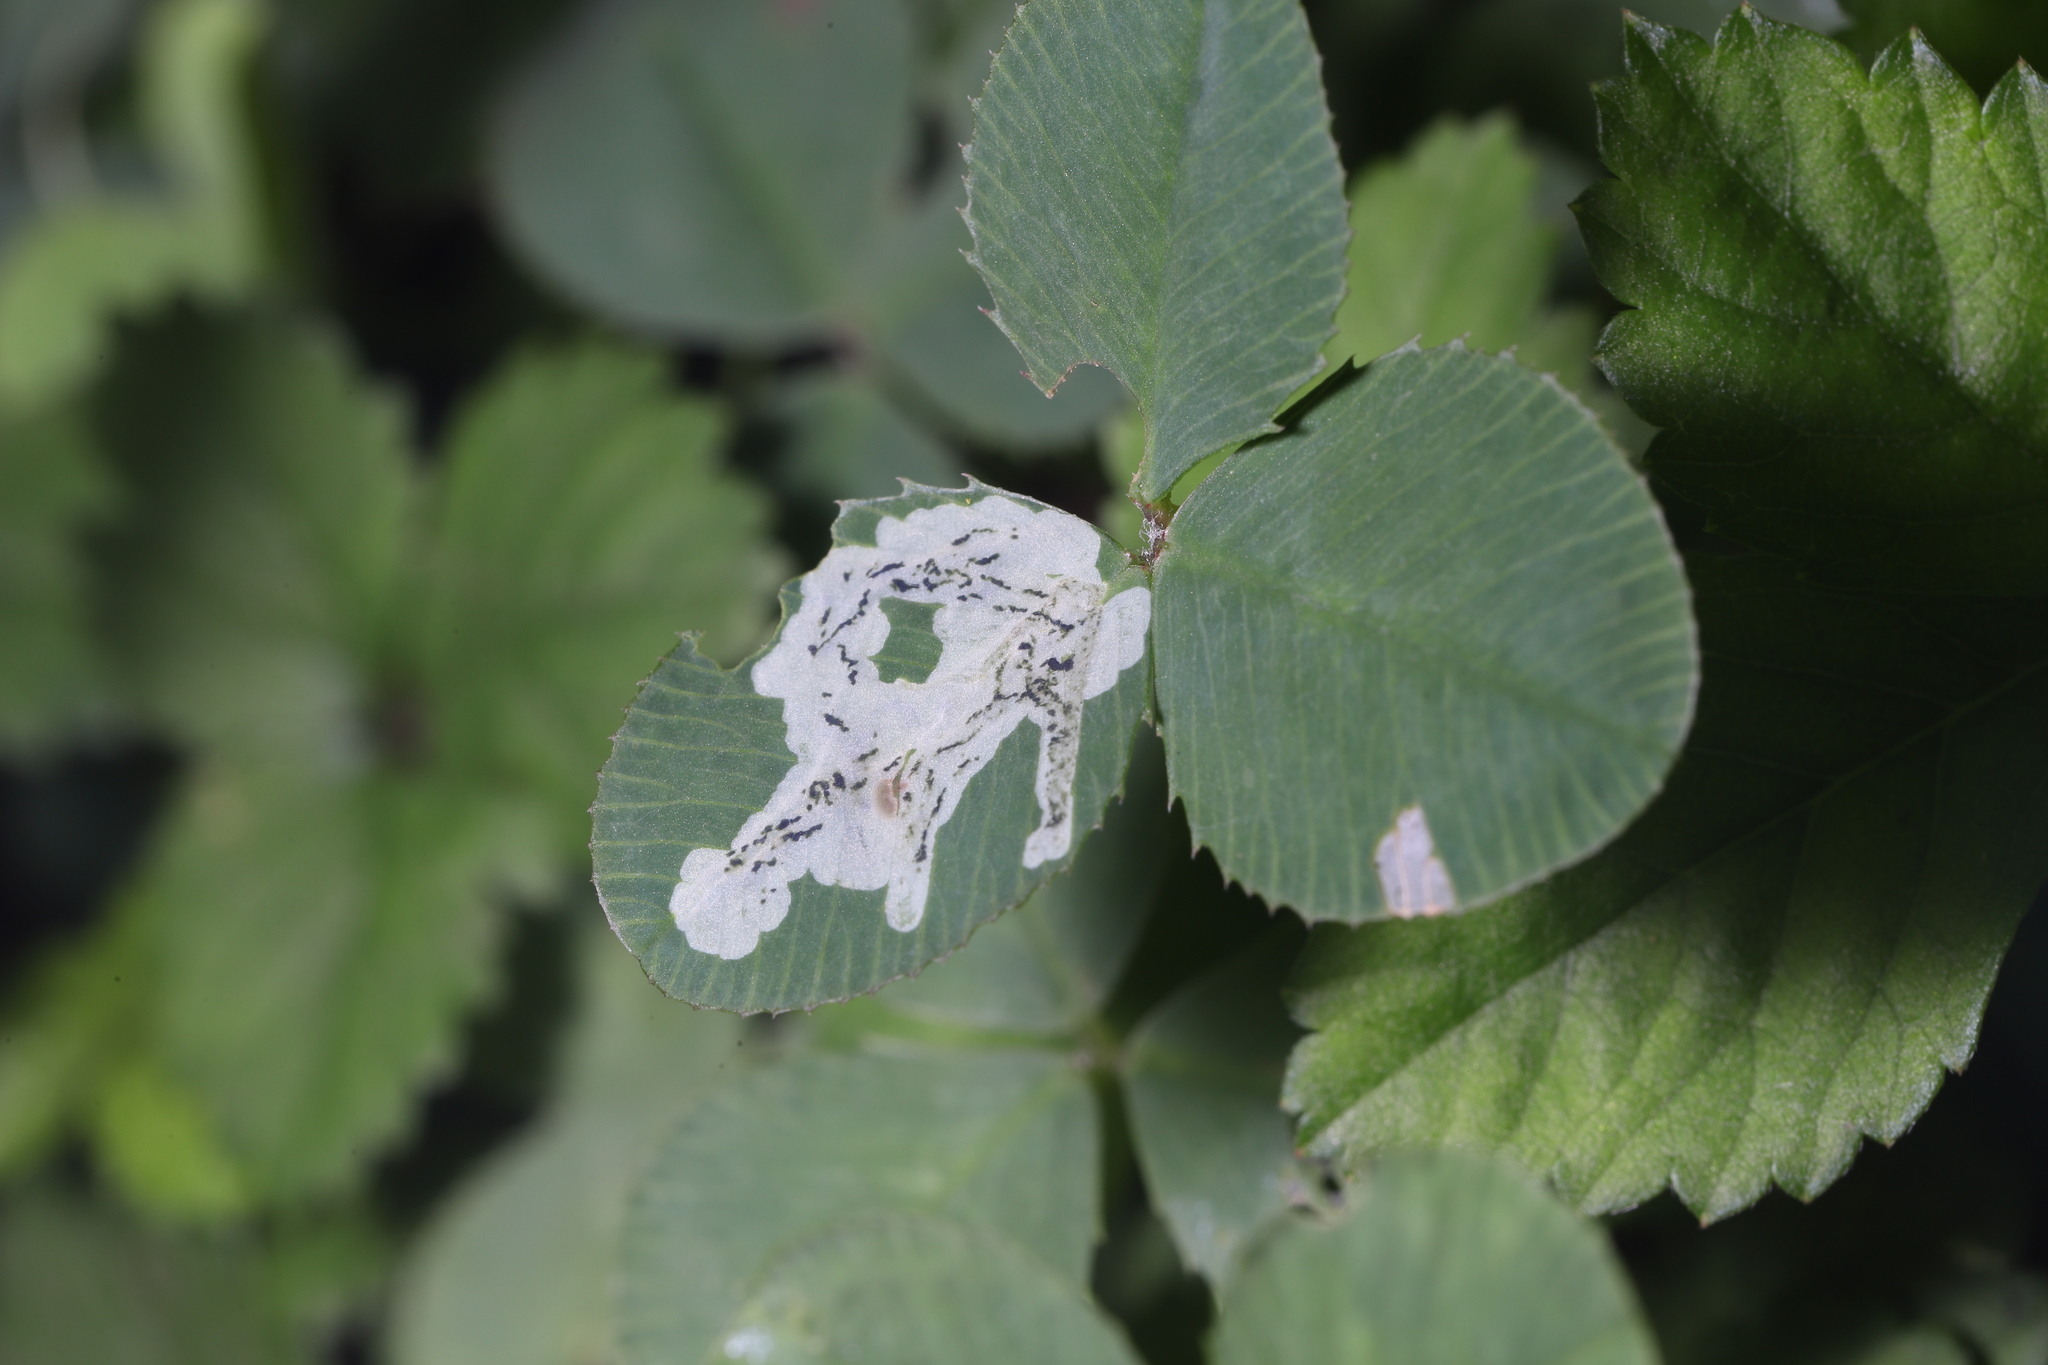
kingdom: Animalia
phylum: Arthropoda
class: Insecta
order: Diptera
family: Agromyzidae
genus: Liriomyza
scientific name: Liriomyza fricki
